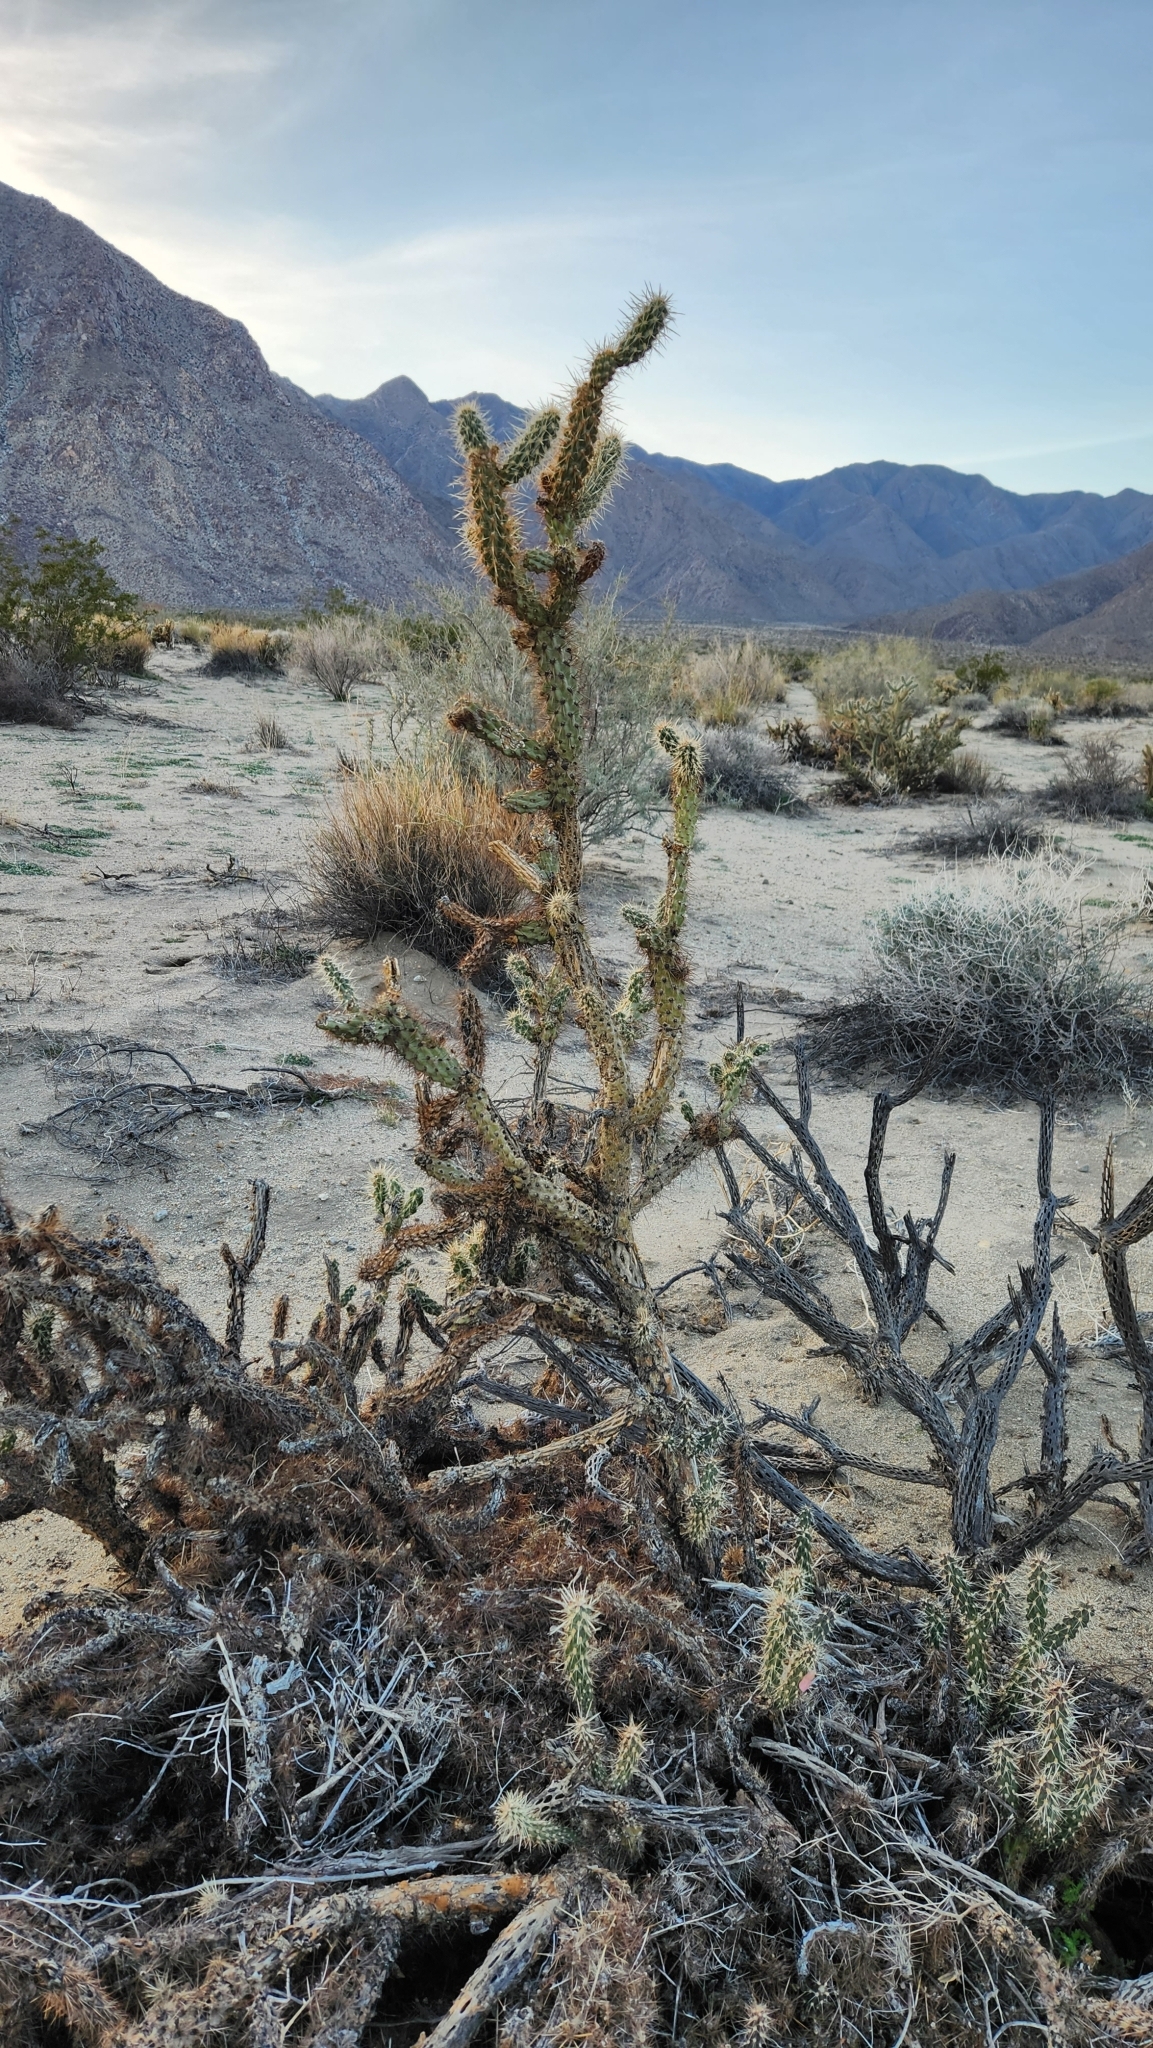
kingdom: Plantae
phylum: Tracheophyta
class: Magnoliopsida
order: Caryophyllales
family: Cactaceae
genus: Cylindropuntia
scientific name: Cylindropuntia ganderi
